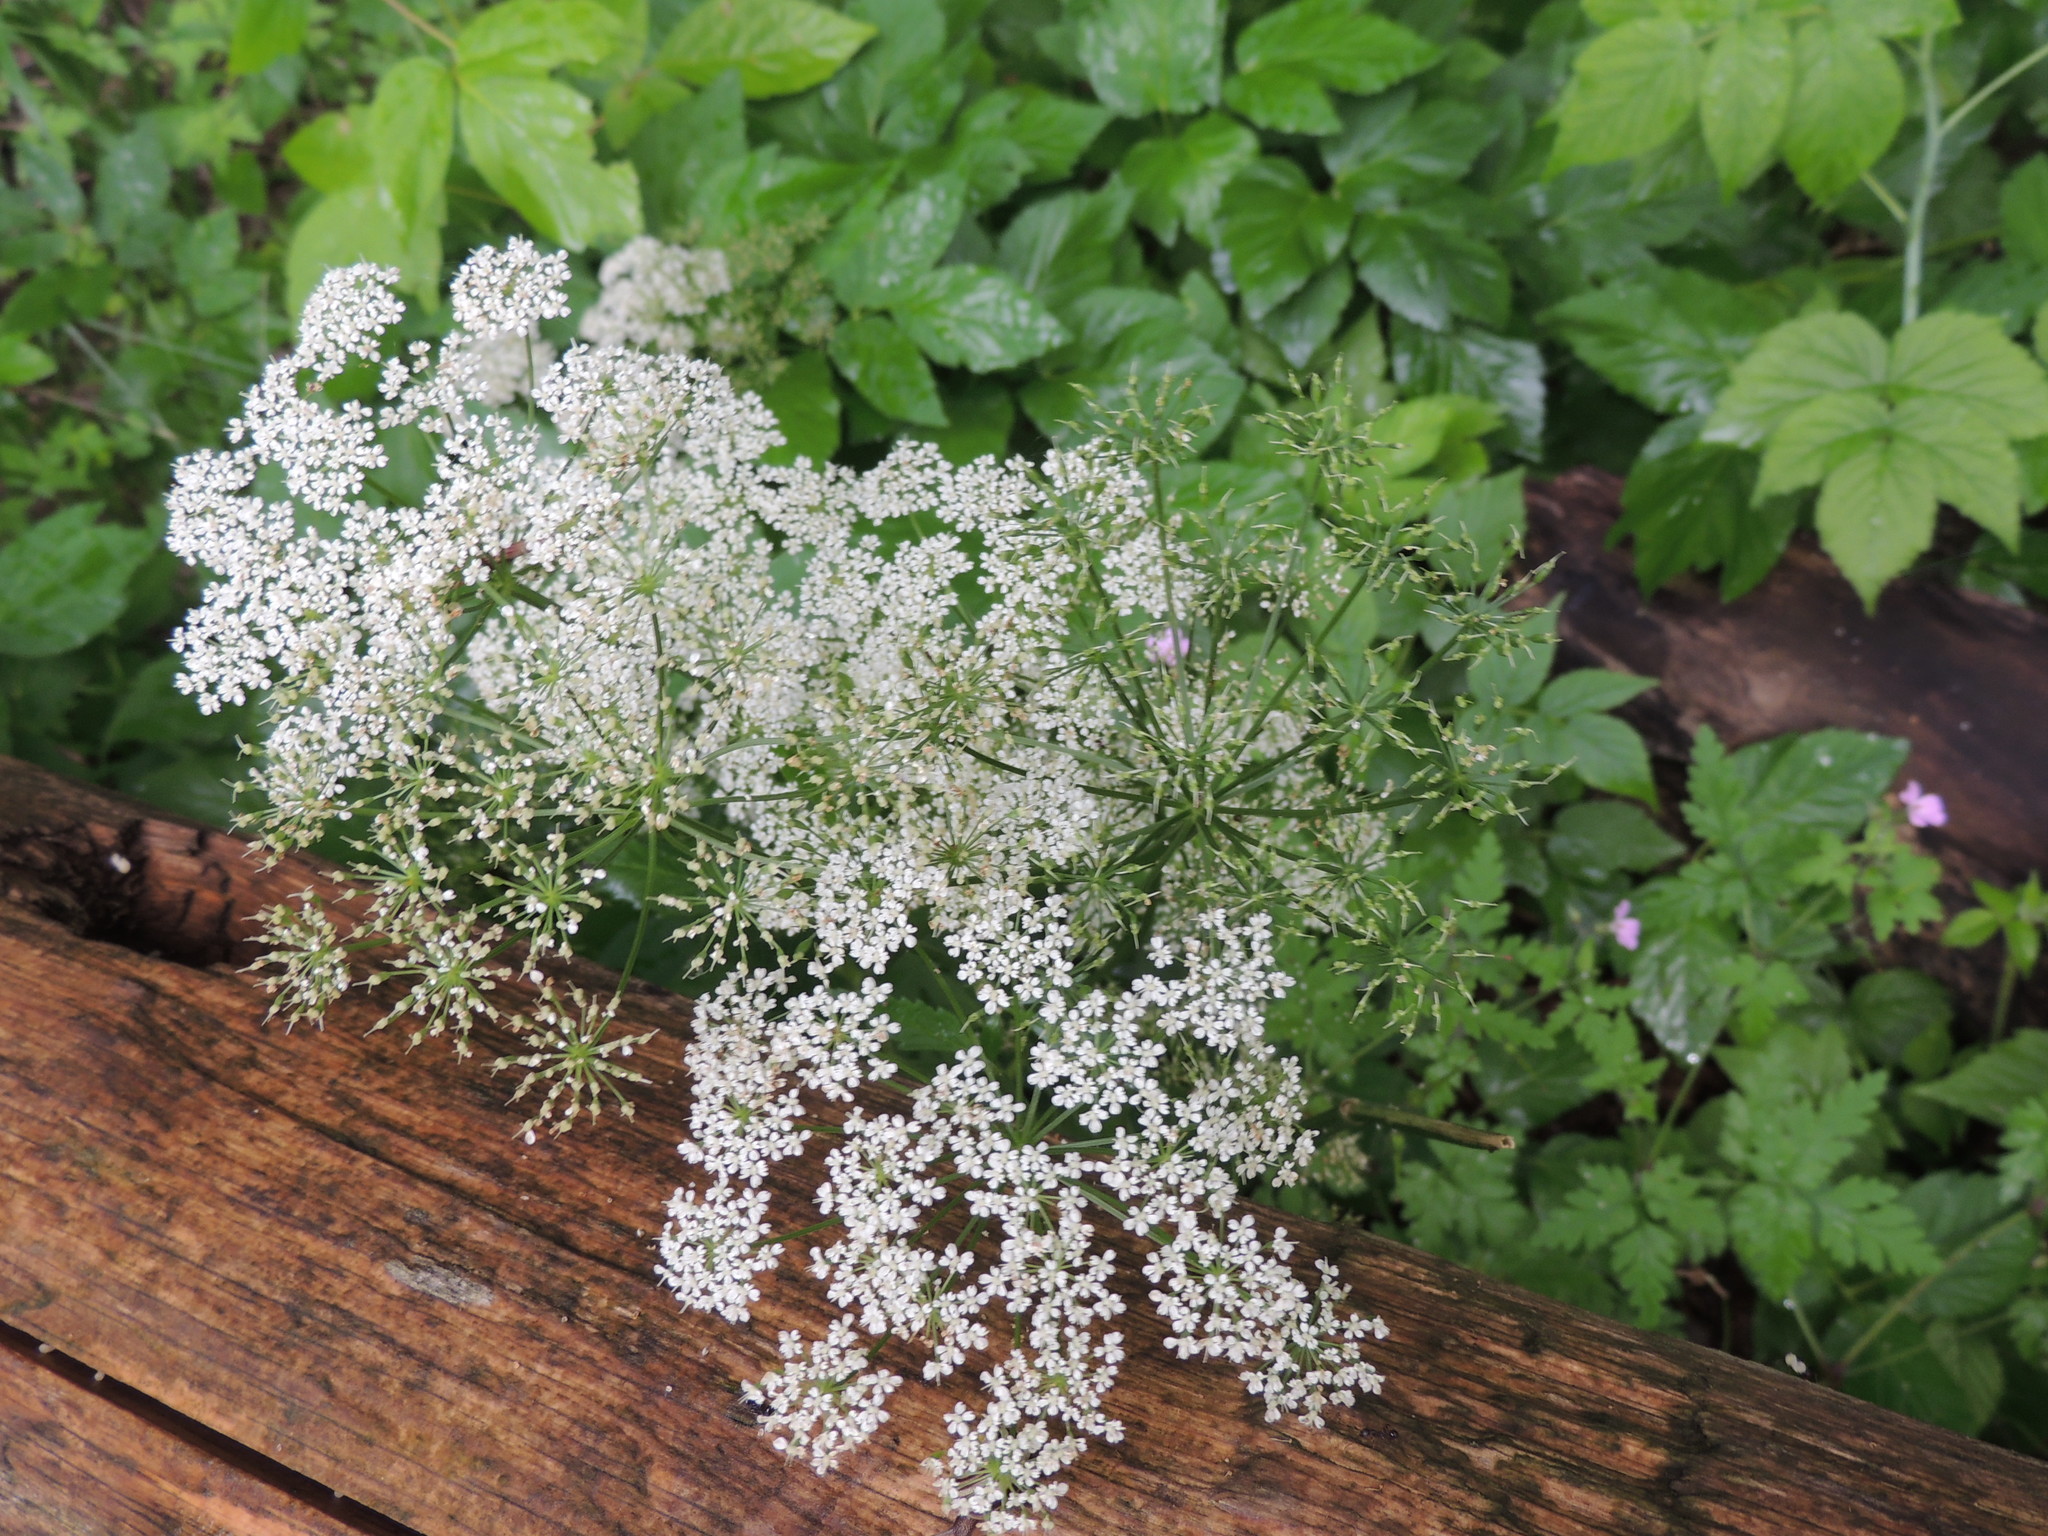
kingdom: Plantae
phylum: Tracheophyta
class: Magnoliopsida
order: Apiales
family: Apiaceae
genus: Aegopodium
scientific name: Aegopodium podagraria
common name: Ground-elder
